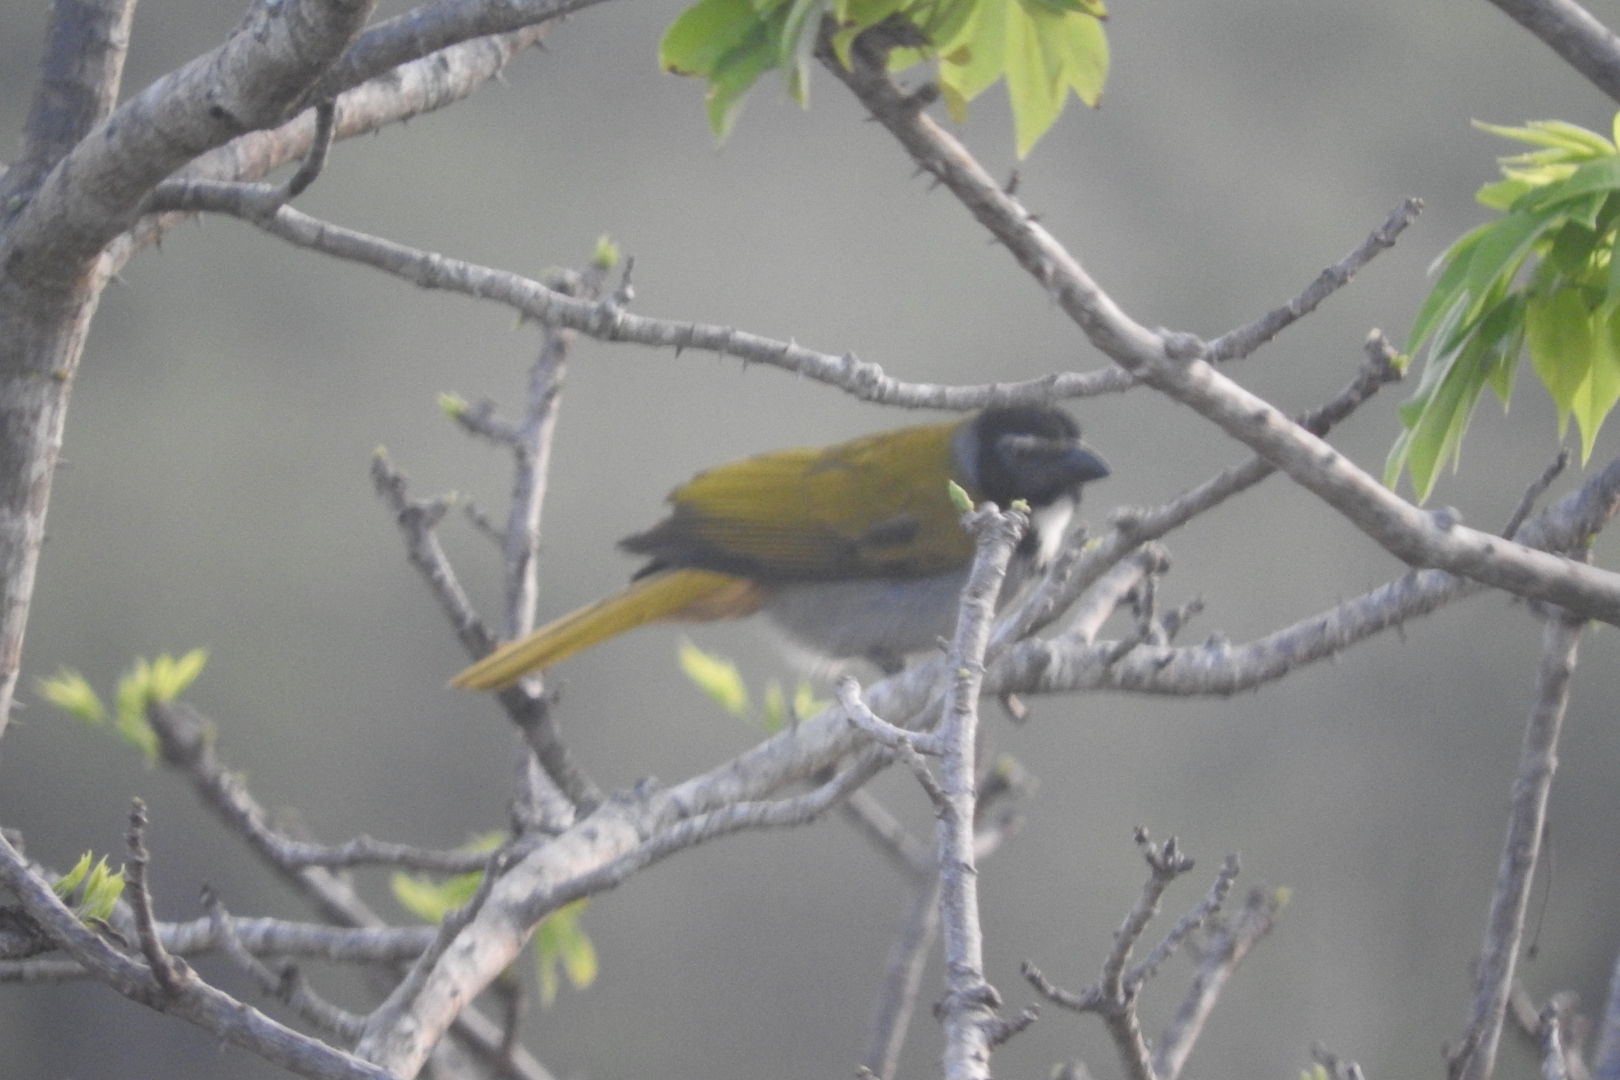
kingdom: Animalia
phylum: Chordata
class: Aves
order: Passeriformes
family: Thraupidae
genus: Saltator
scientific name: Saltator atriceps
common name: Black-headed saltator
